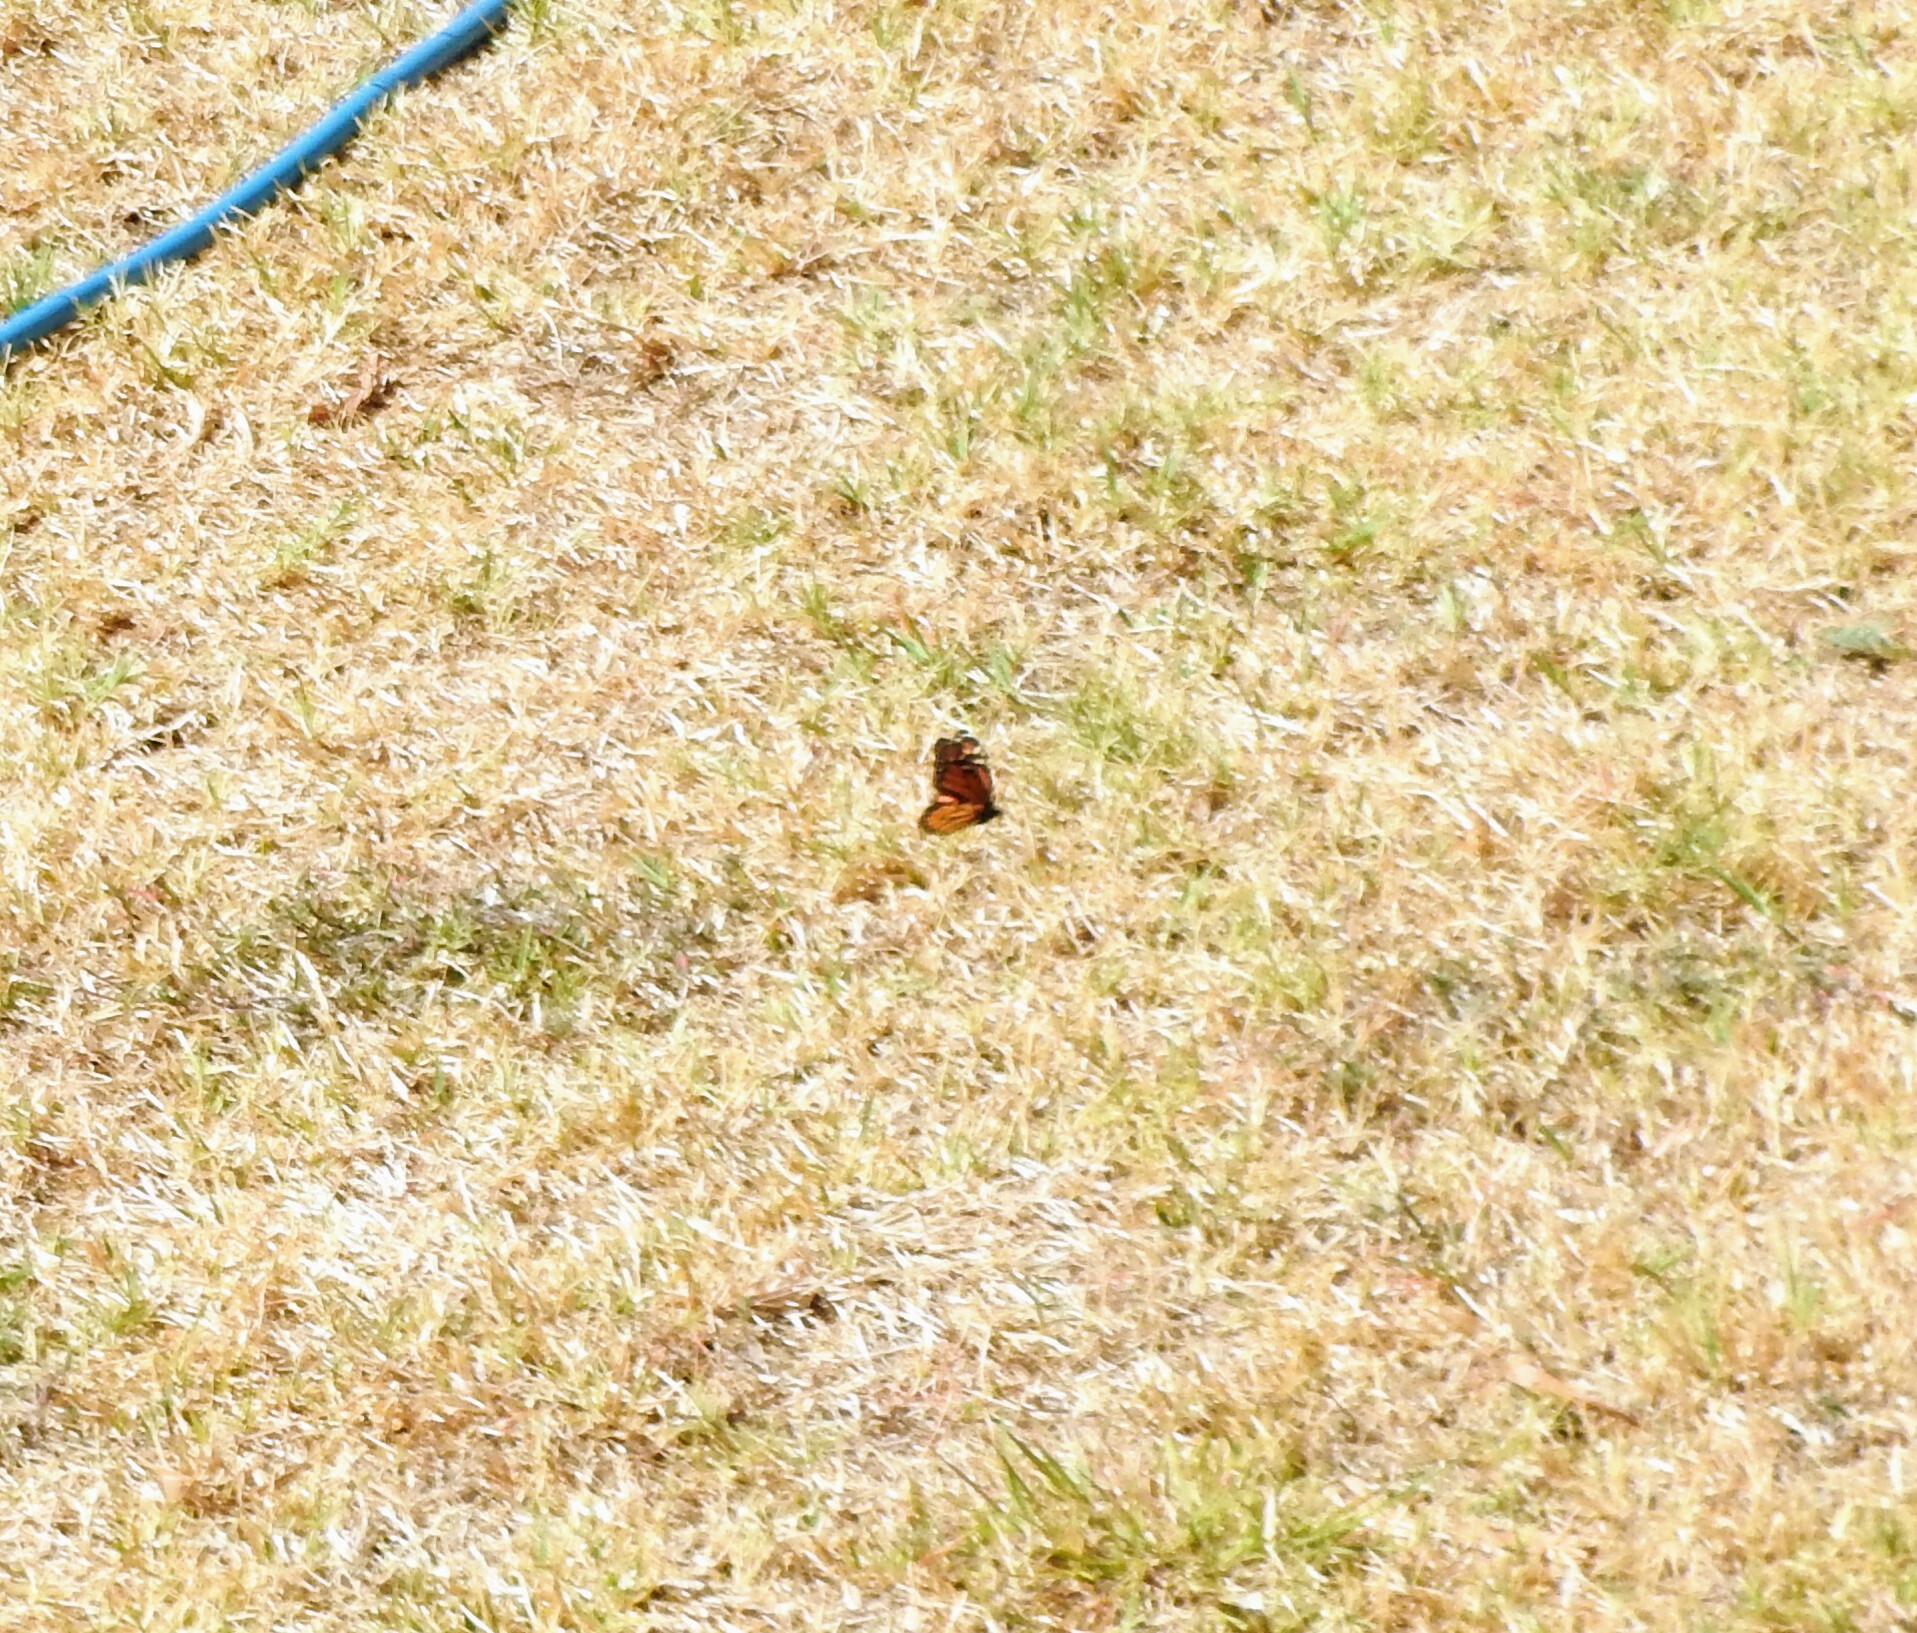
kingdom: Animalia
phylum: Arthropoda
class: Insecta
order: Lepidoptera
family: Nymphalidae
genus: Danaus
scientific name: Danaus plexippus
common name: Monarch
